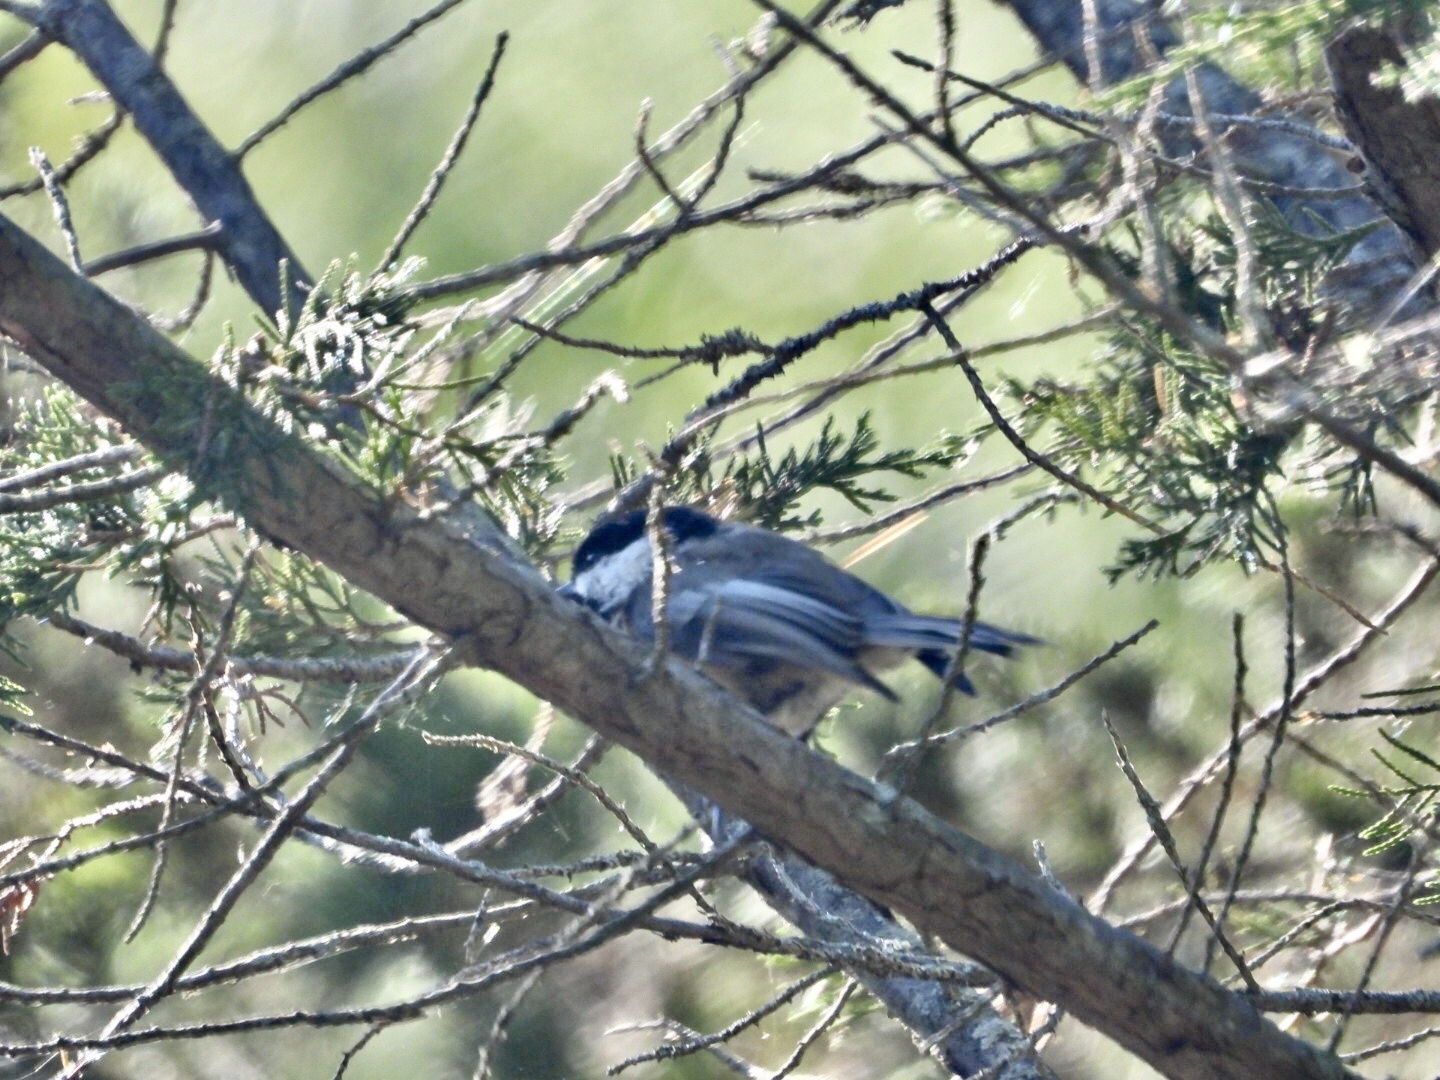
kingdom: Animalia
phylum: Chordata
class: Aves
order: Passeriformes
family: Paridae
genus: Poecile
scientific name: Poecile atricapillus
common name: Black-capped chickadee
